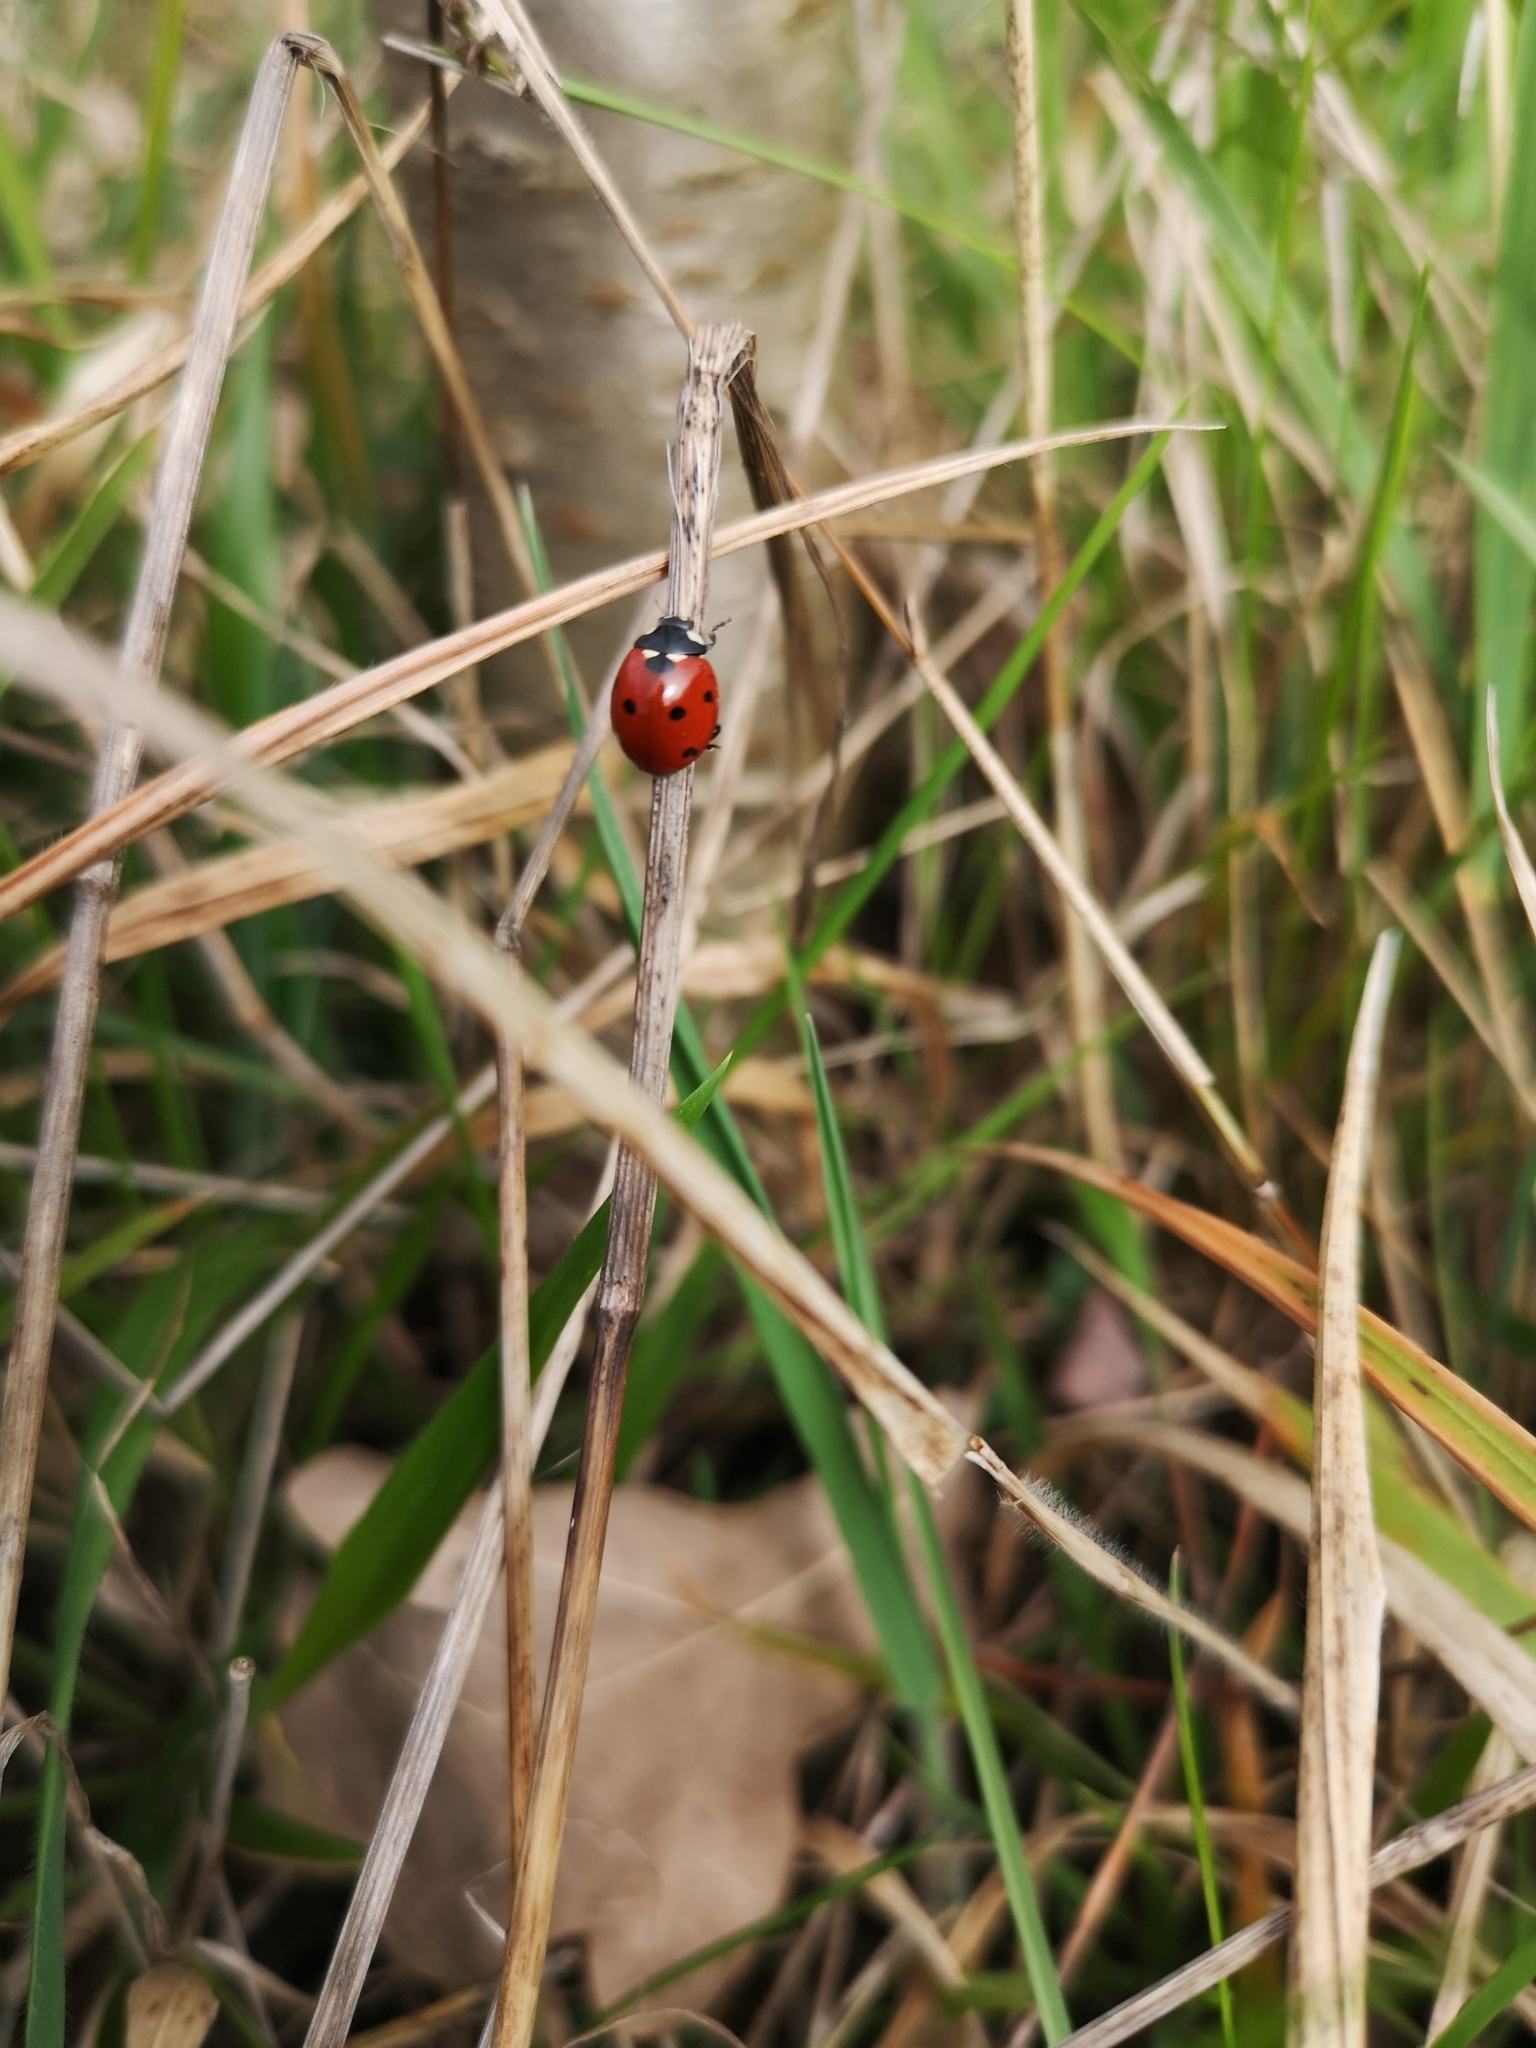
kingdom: Animalia
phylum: Arthropoda
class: Insecta
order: Coleoptera
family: Coccinellidae
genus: Coccinella
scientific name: Coccinella septempunctata
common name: Sevenspotted lady beetle
